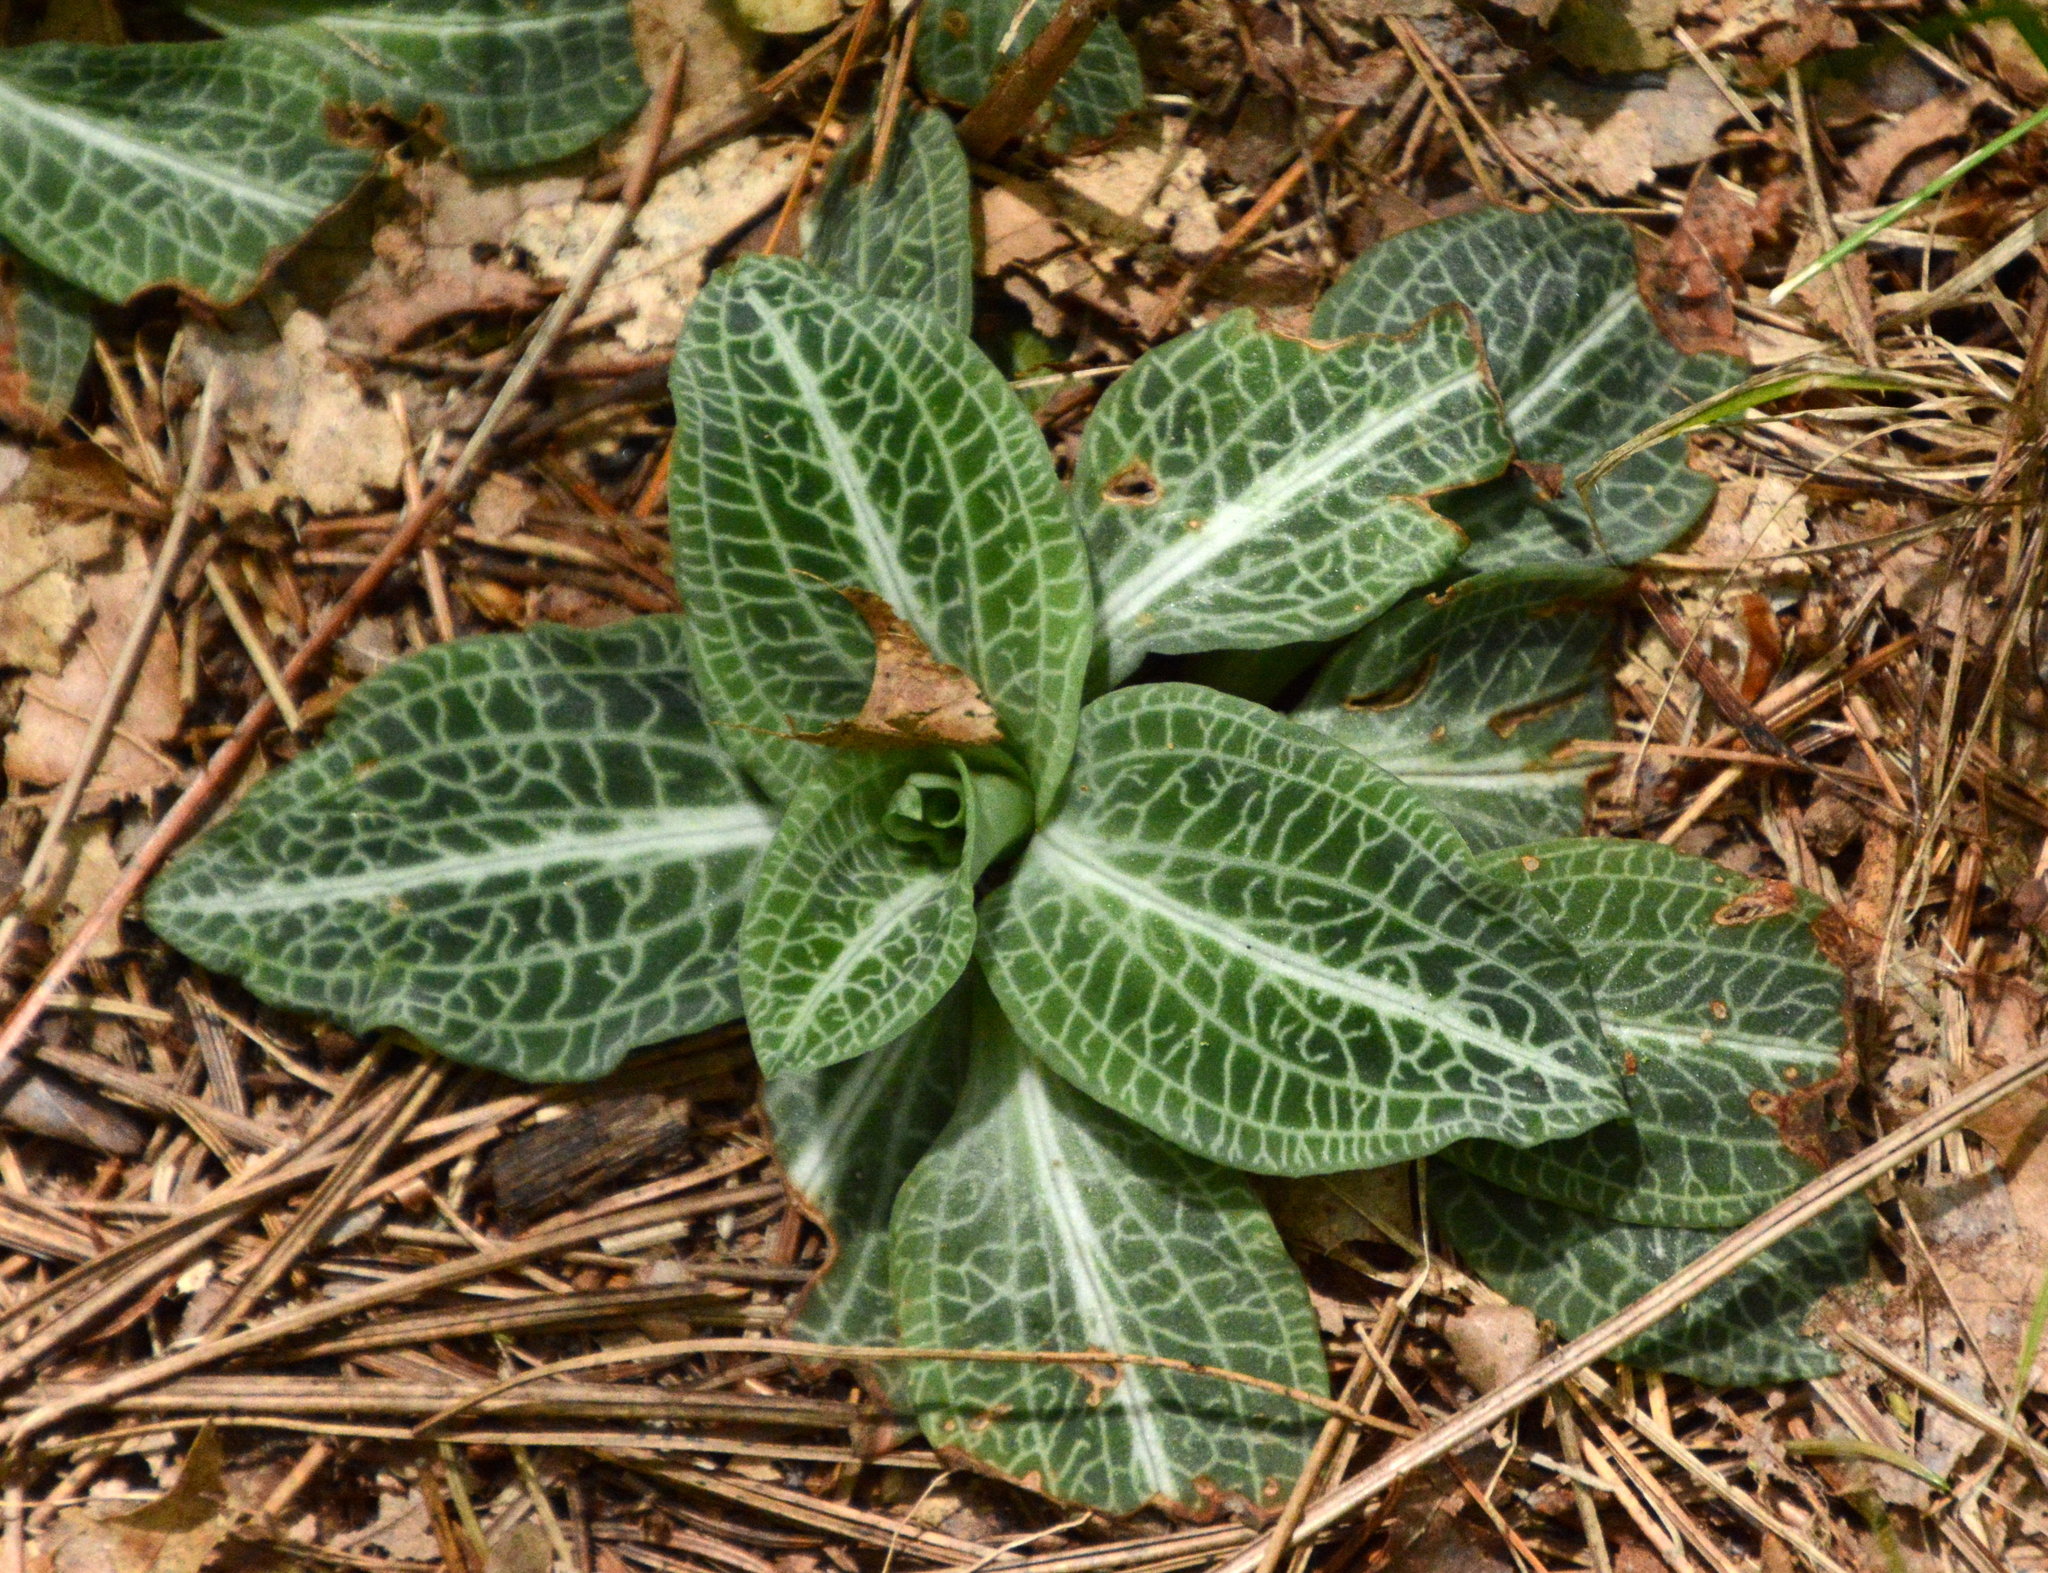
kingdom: Plantae
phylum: Tracheophyta
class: Liliopsida
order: Asparagales
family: Orchidaceae
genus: Goodyera
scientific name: Goodyera pubescens
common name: Downy rattlesnake-plantain
